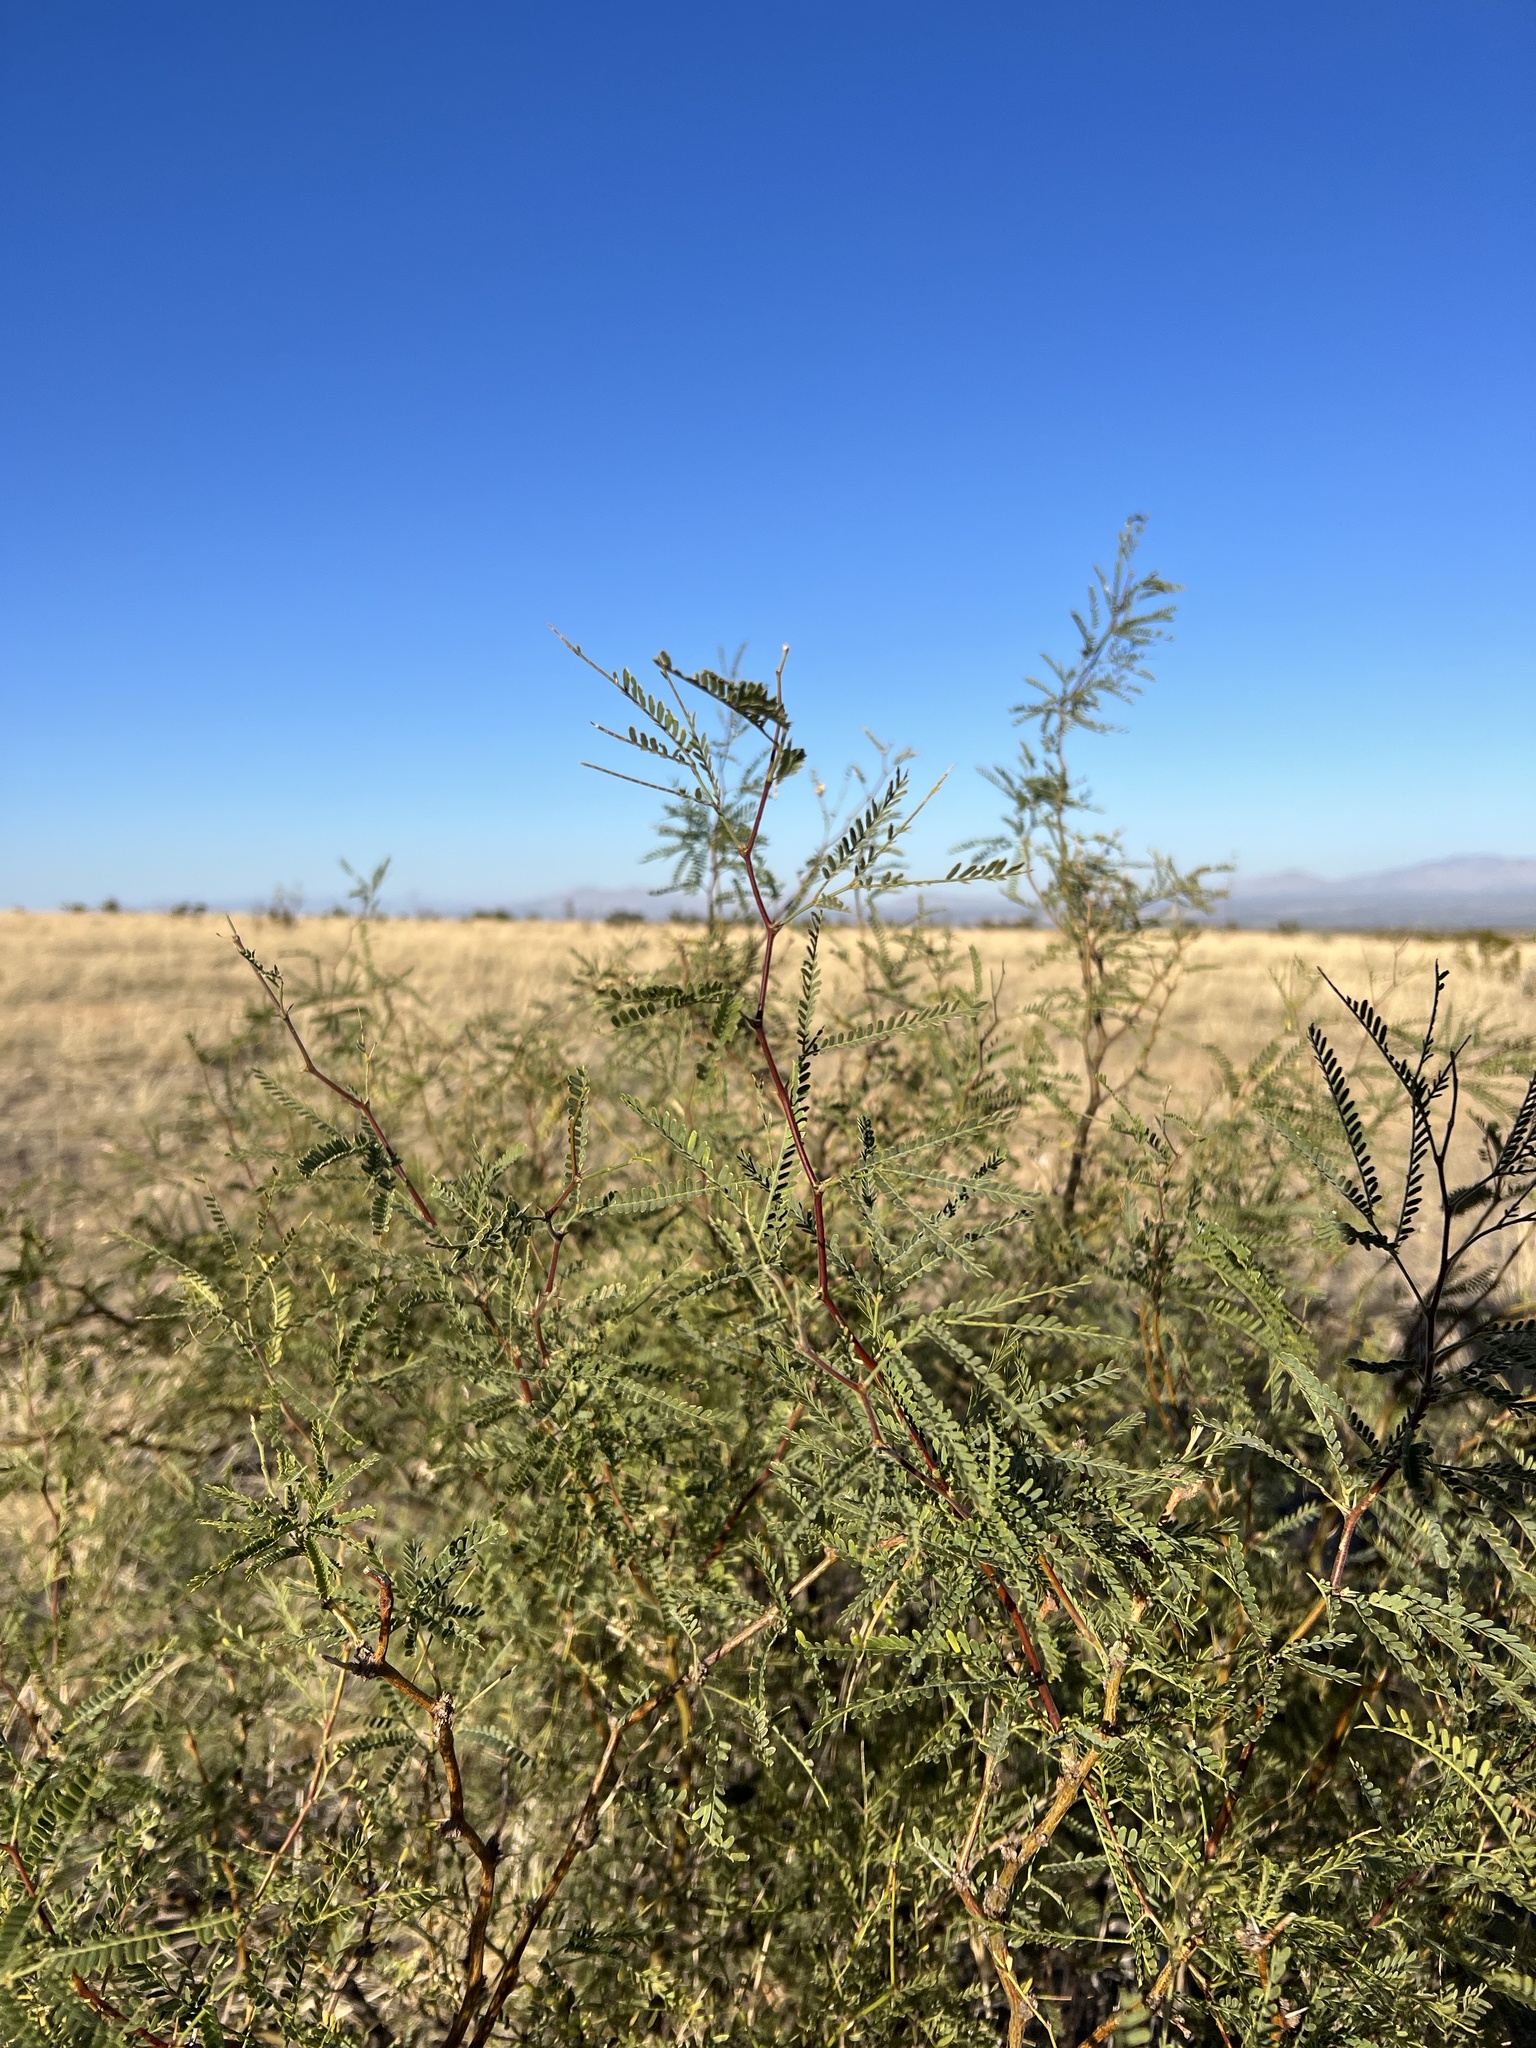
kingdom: Plantae
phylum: Tracheophyta
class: Magnoliopsida
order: Fabales
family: Fabaceae
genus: Prosopis
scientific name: Prosopis velutina
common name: Velvet mesquite
